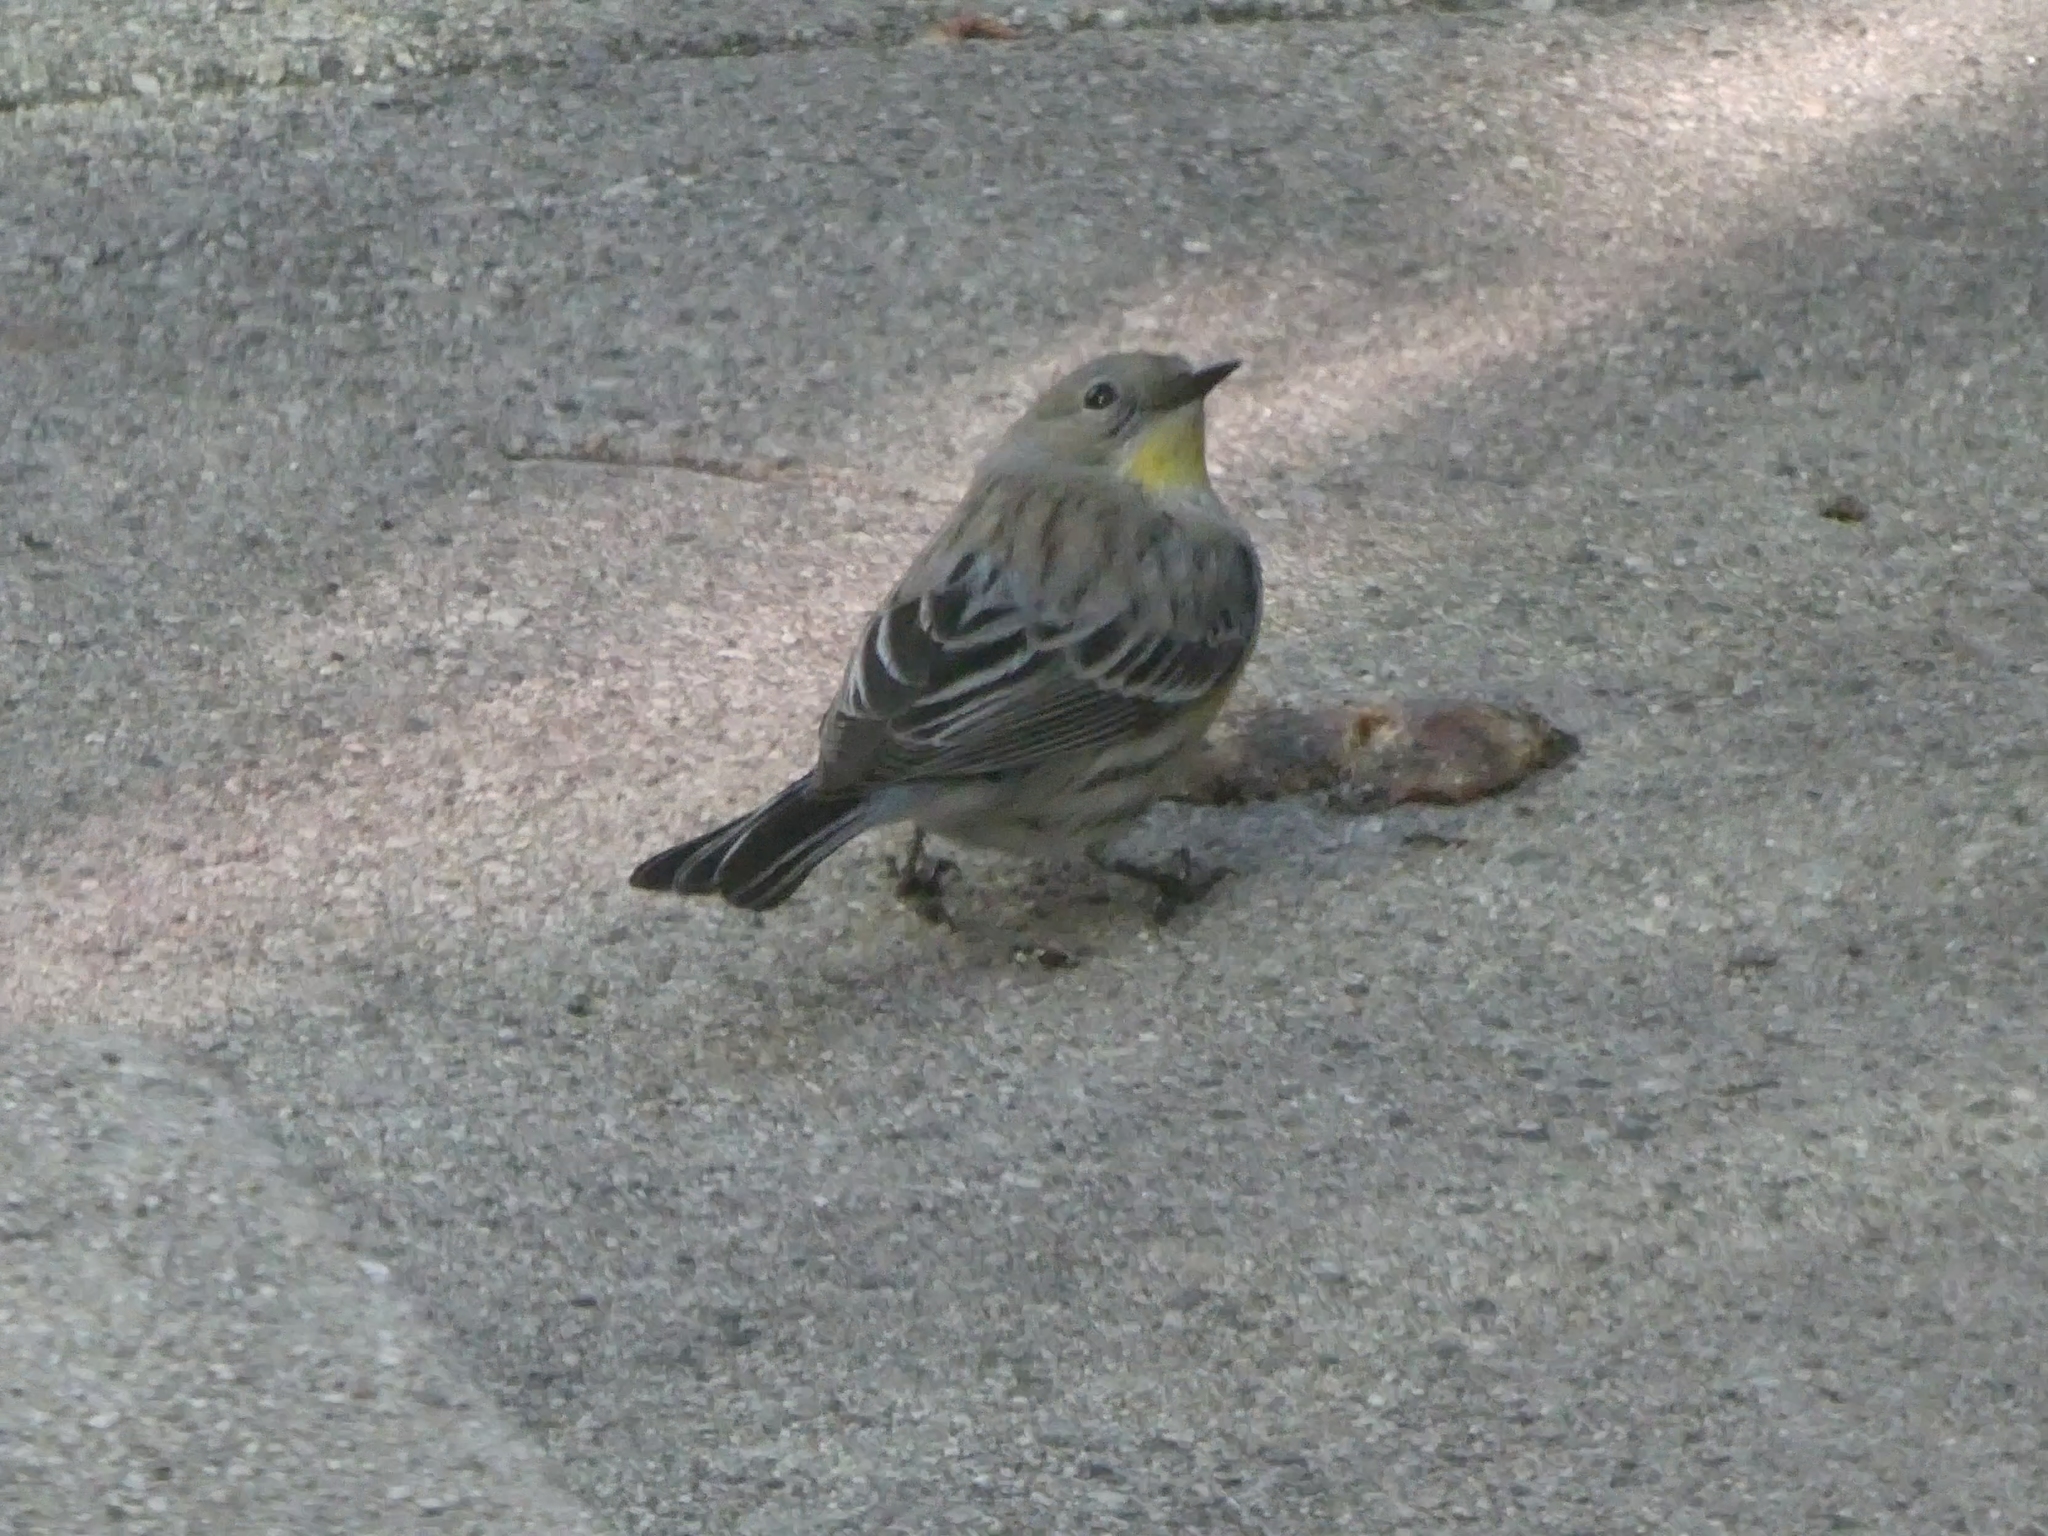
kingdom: Animalia
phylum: Chordata
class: Aves
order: Passeriformes
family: Parulidae
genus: Setophaga
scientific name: Setophaga coronata
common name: Myrtle warbler
